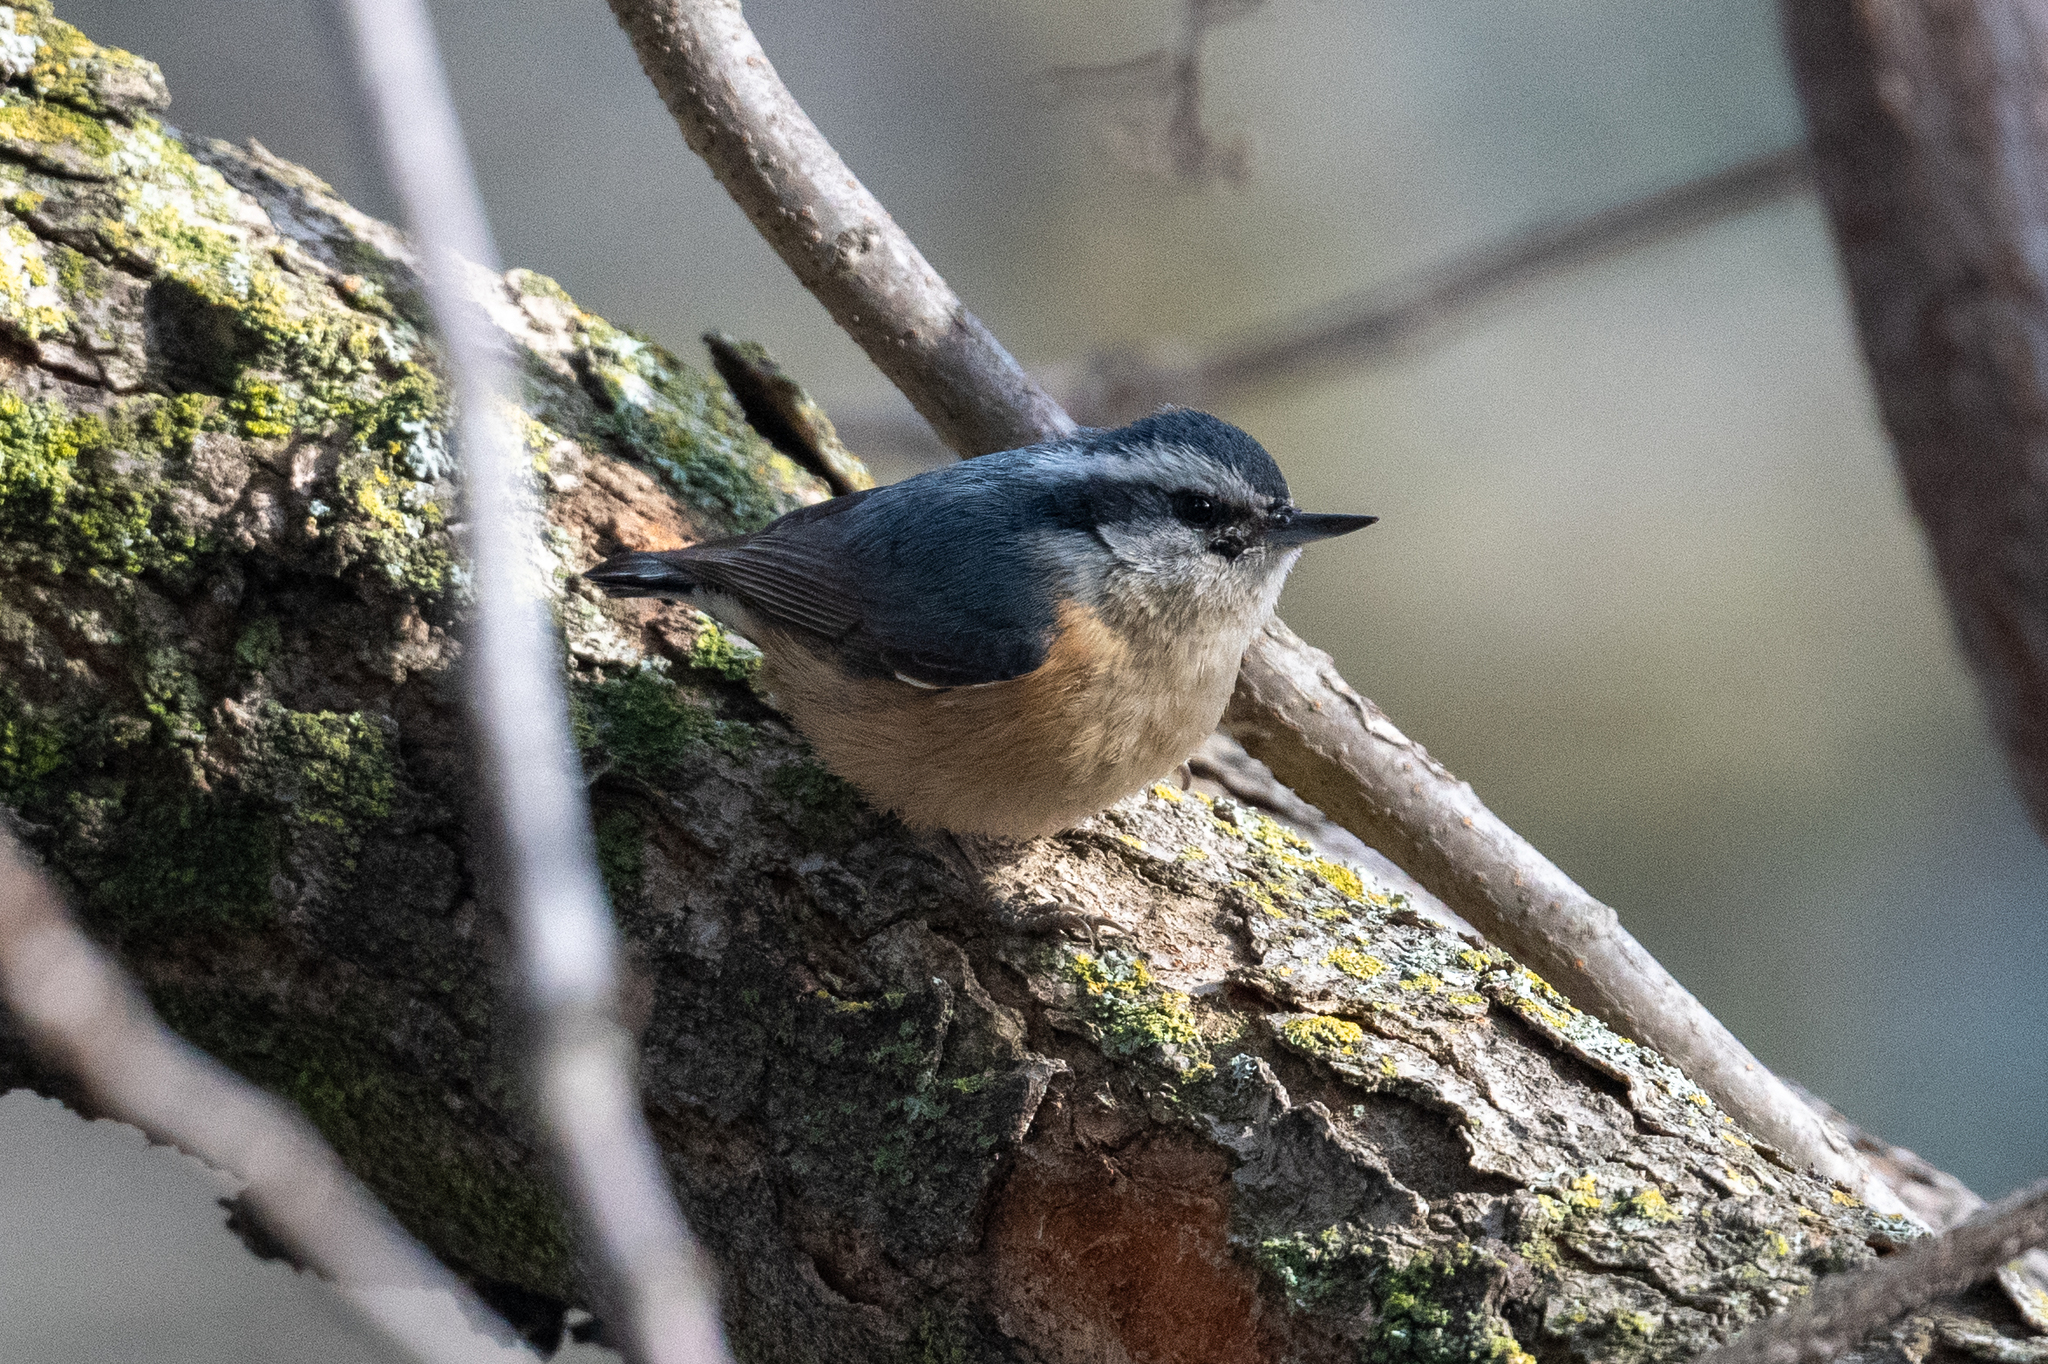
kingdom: Animalia
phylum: Chordata
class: Aves
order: Passeriformes
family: Sittidae
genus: Sitta
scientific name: Sitta canadensis
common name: Red-breasted nuthatch
